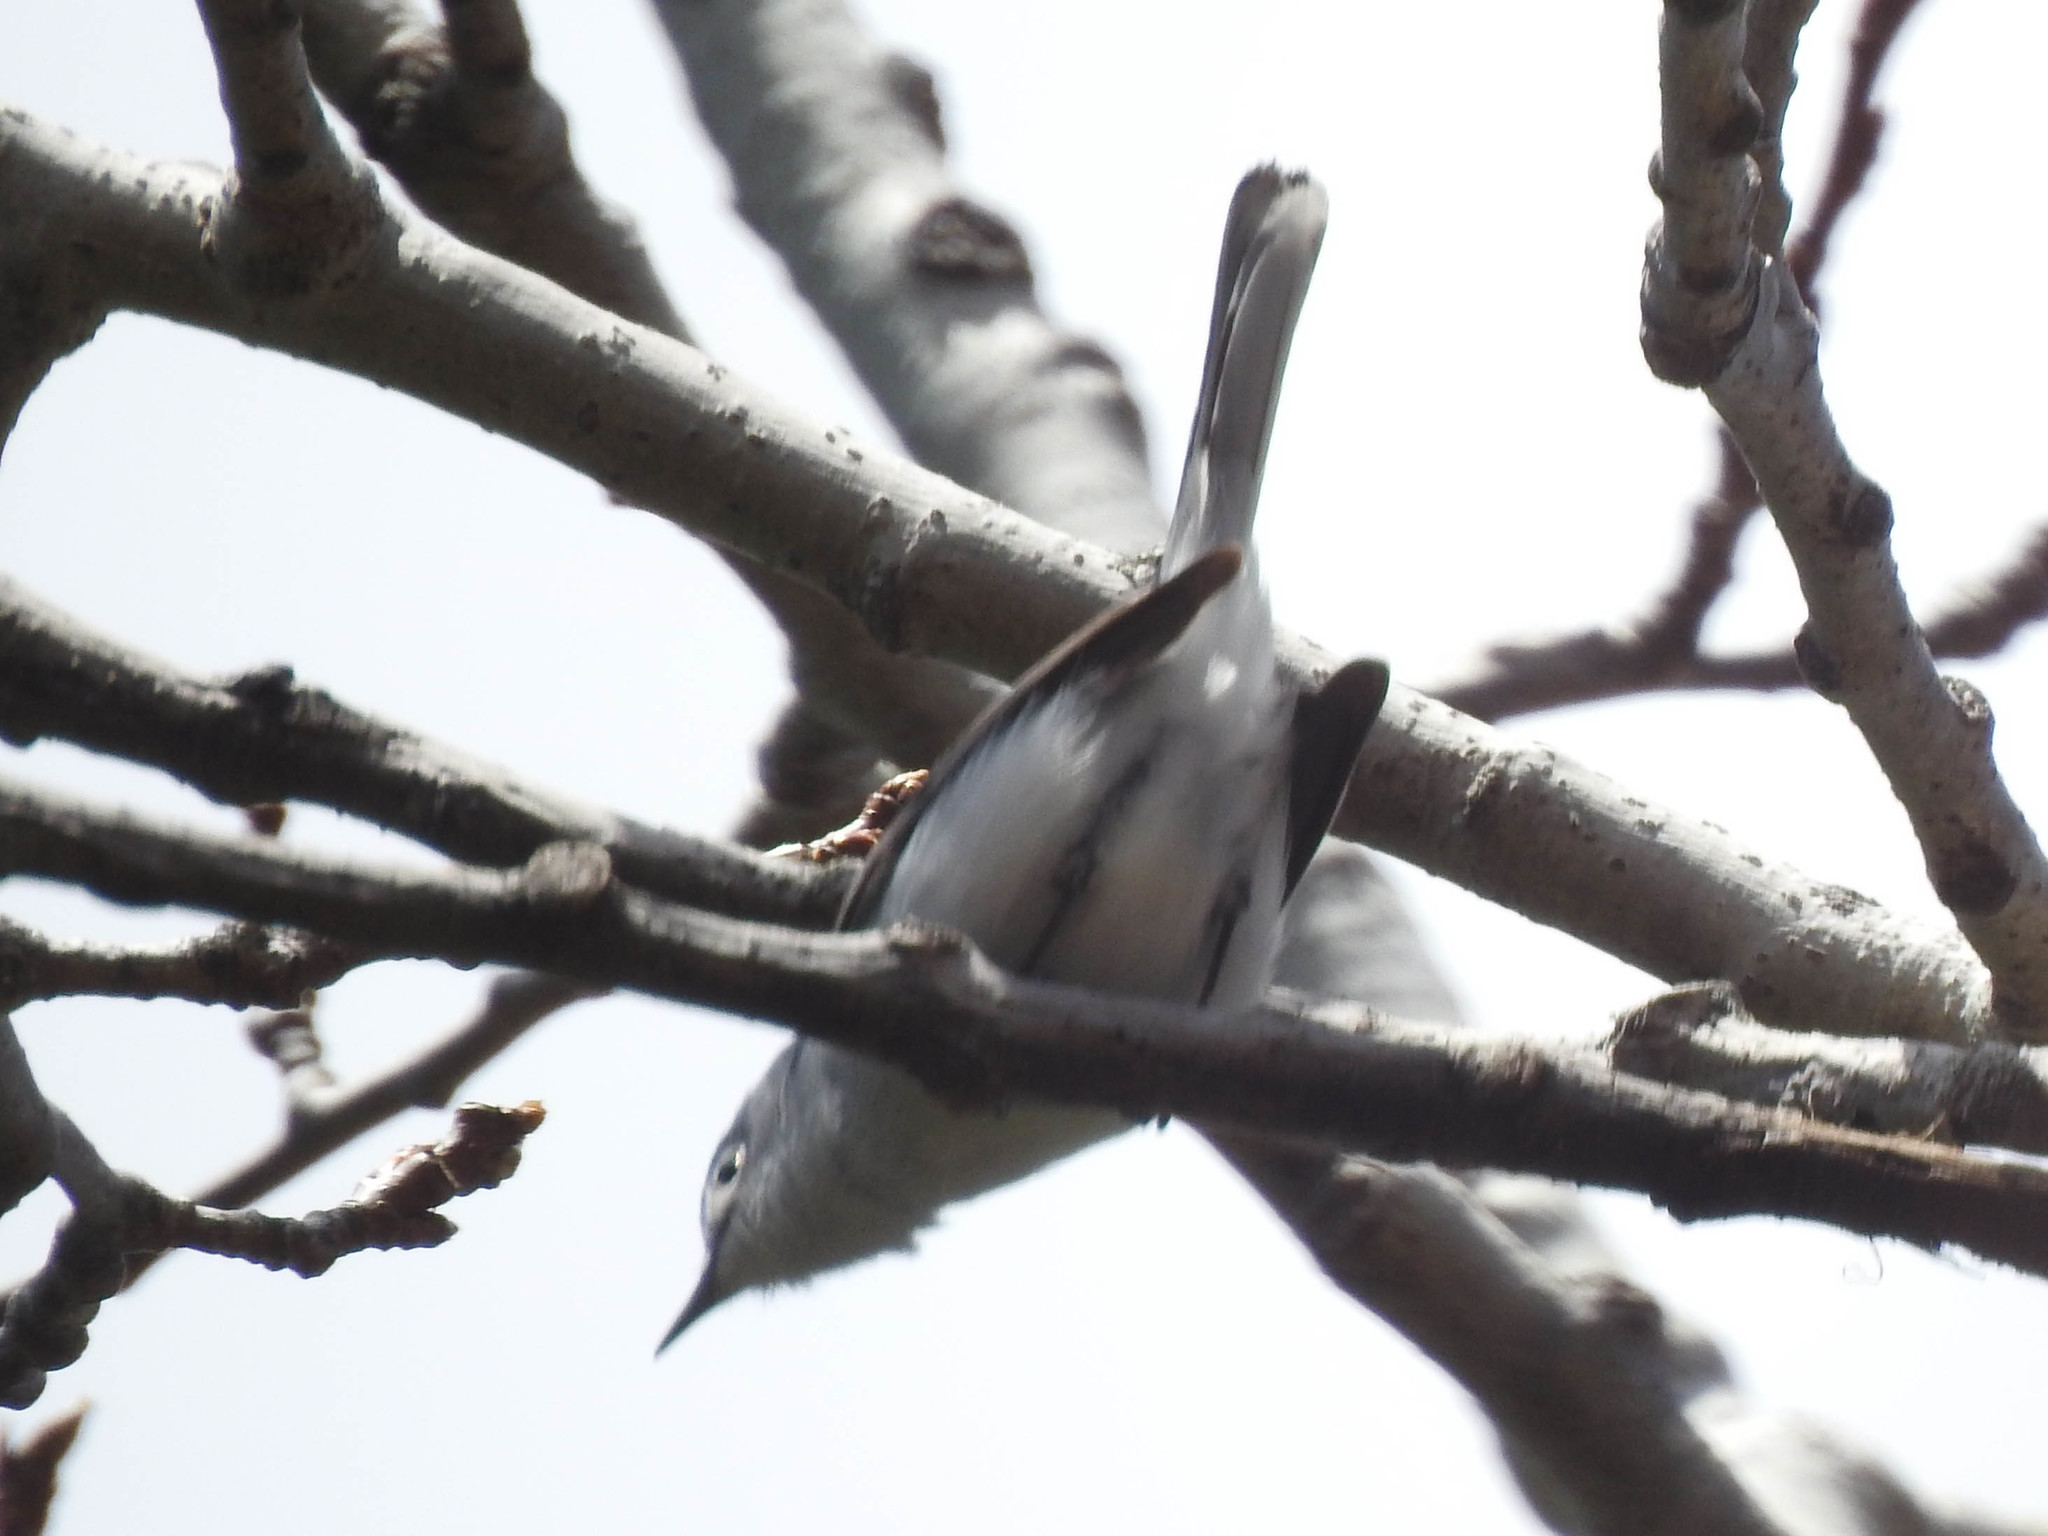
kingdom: Animalia
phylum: Chordata
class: Aves
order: Passeriformes
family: Polioptilidae
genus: Polioptila
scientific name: Polioptila caerulea
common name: Blue-gray gnatcatcher
